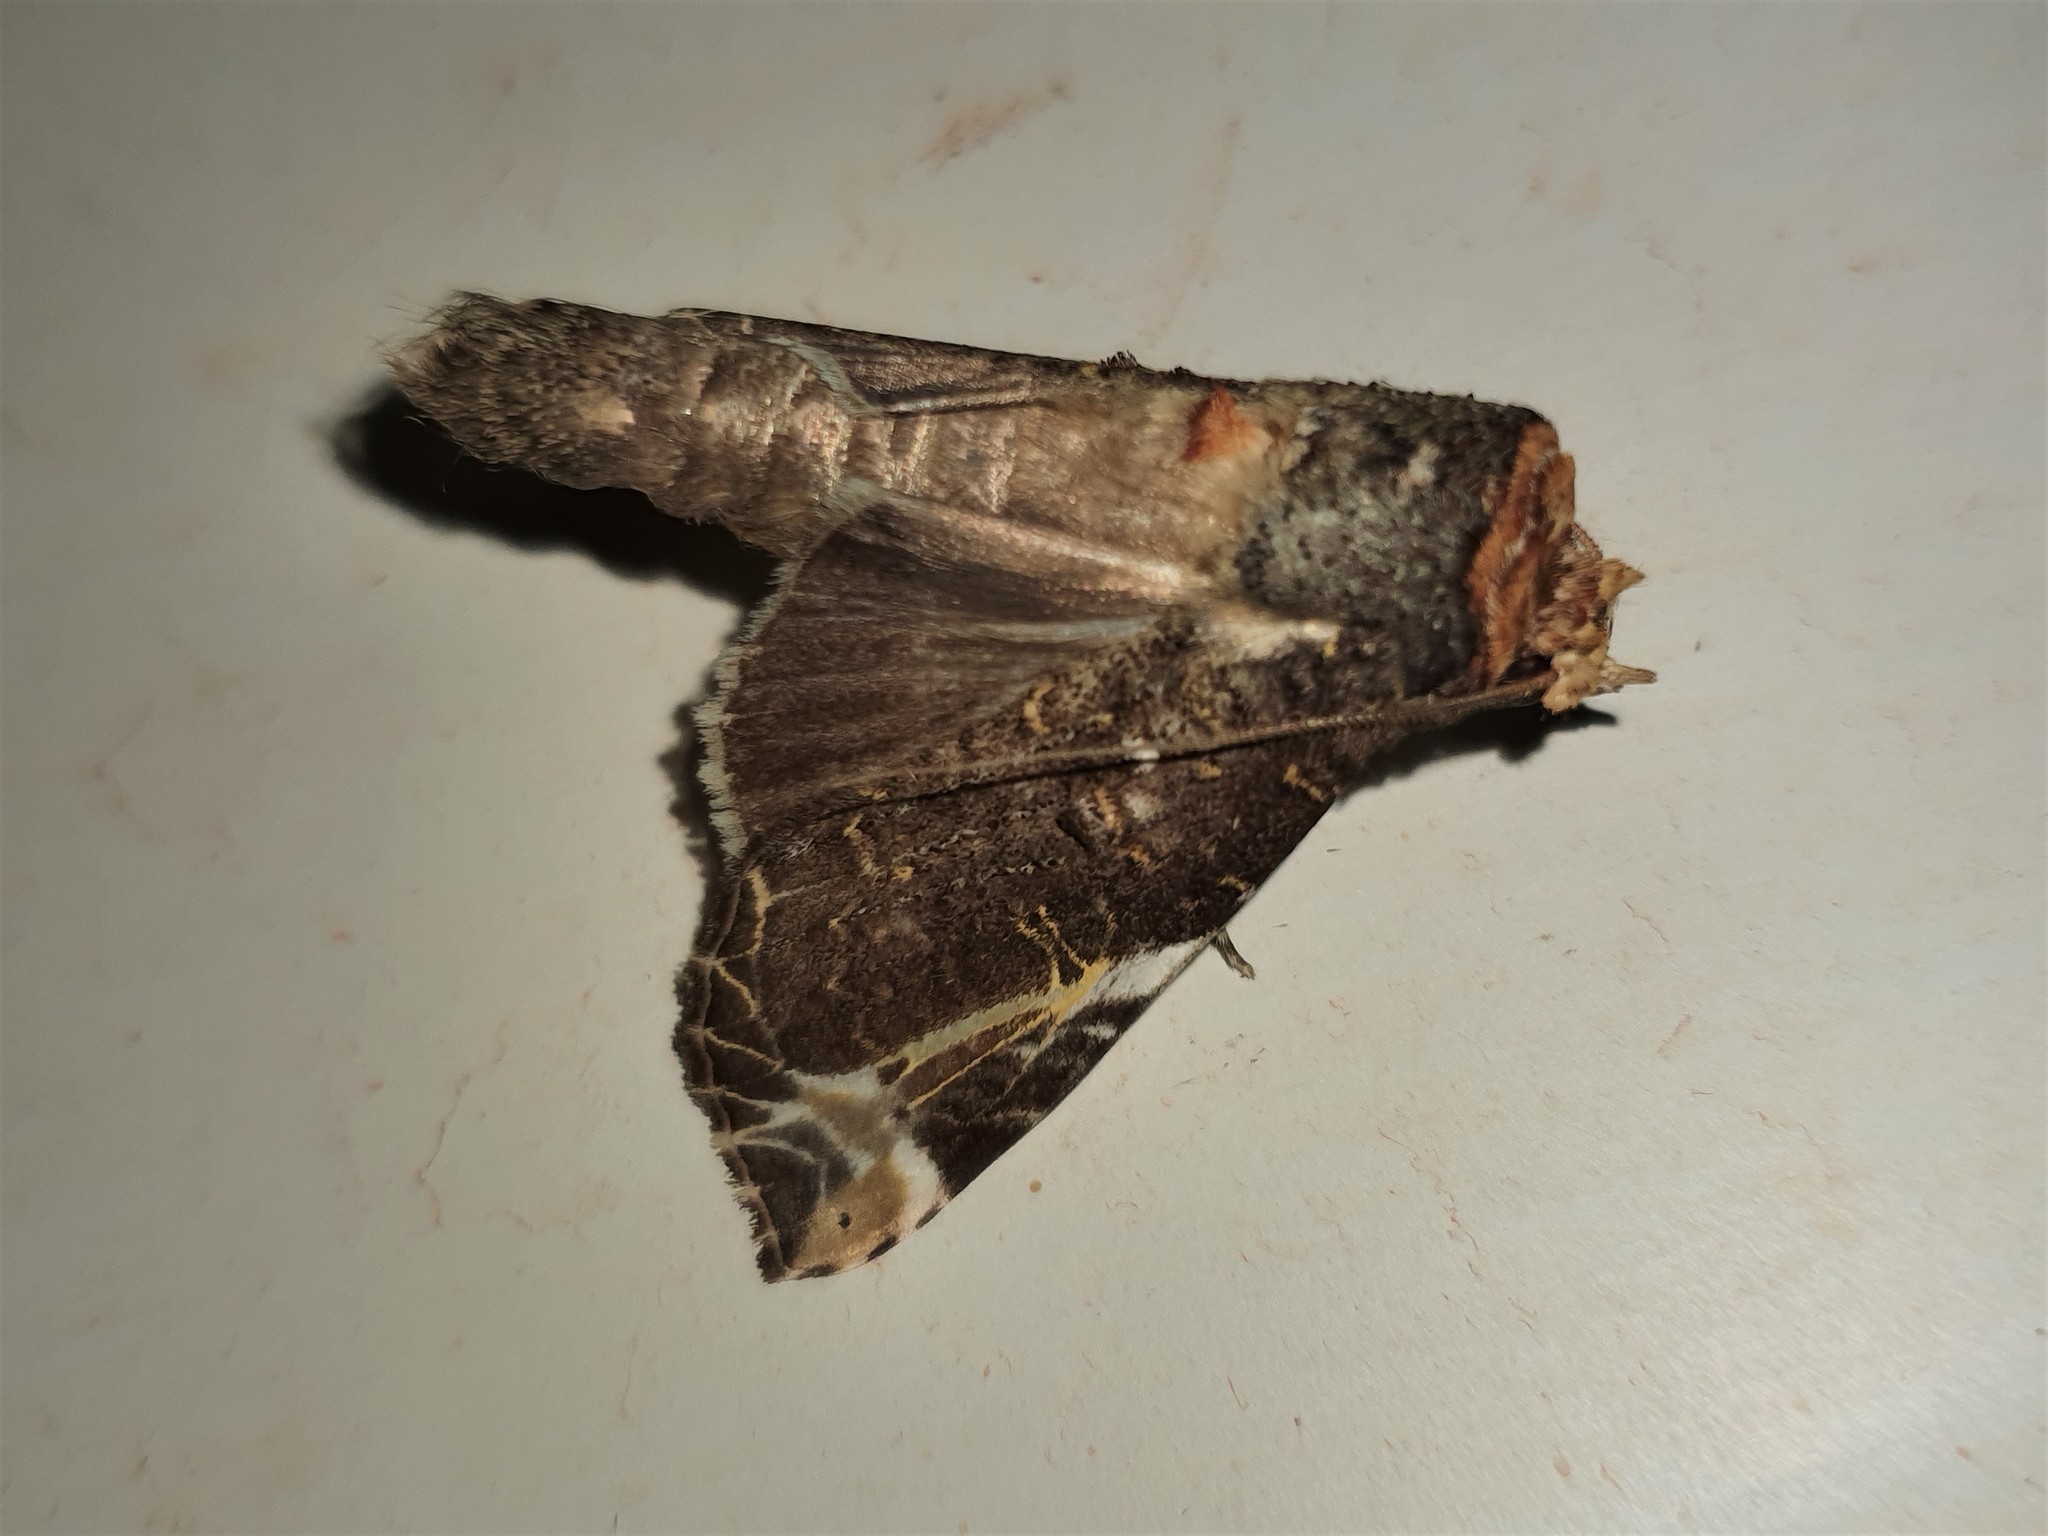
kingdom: Animalia
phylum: Arthropoda
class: Insecta
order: Lepidoptera
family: Notodontidae
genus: Calledema
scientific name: Calledema marmorea
